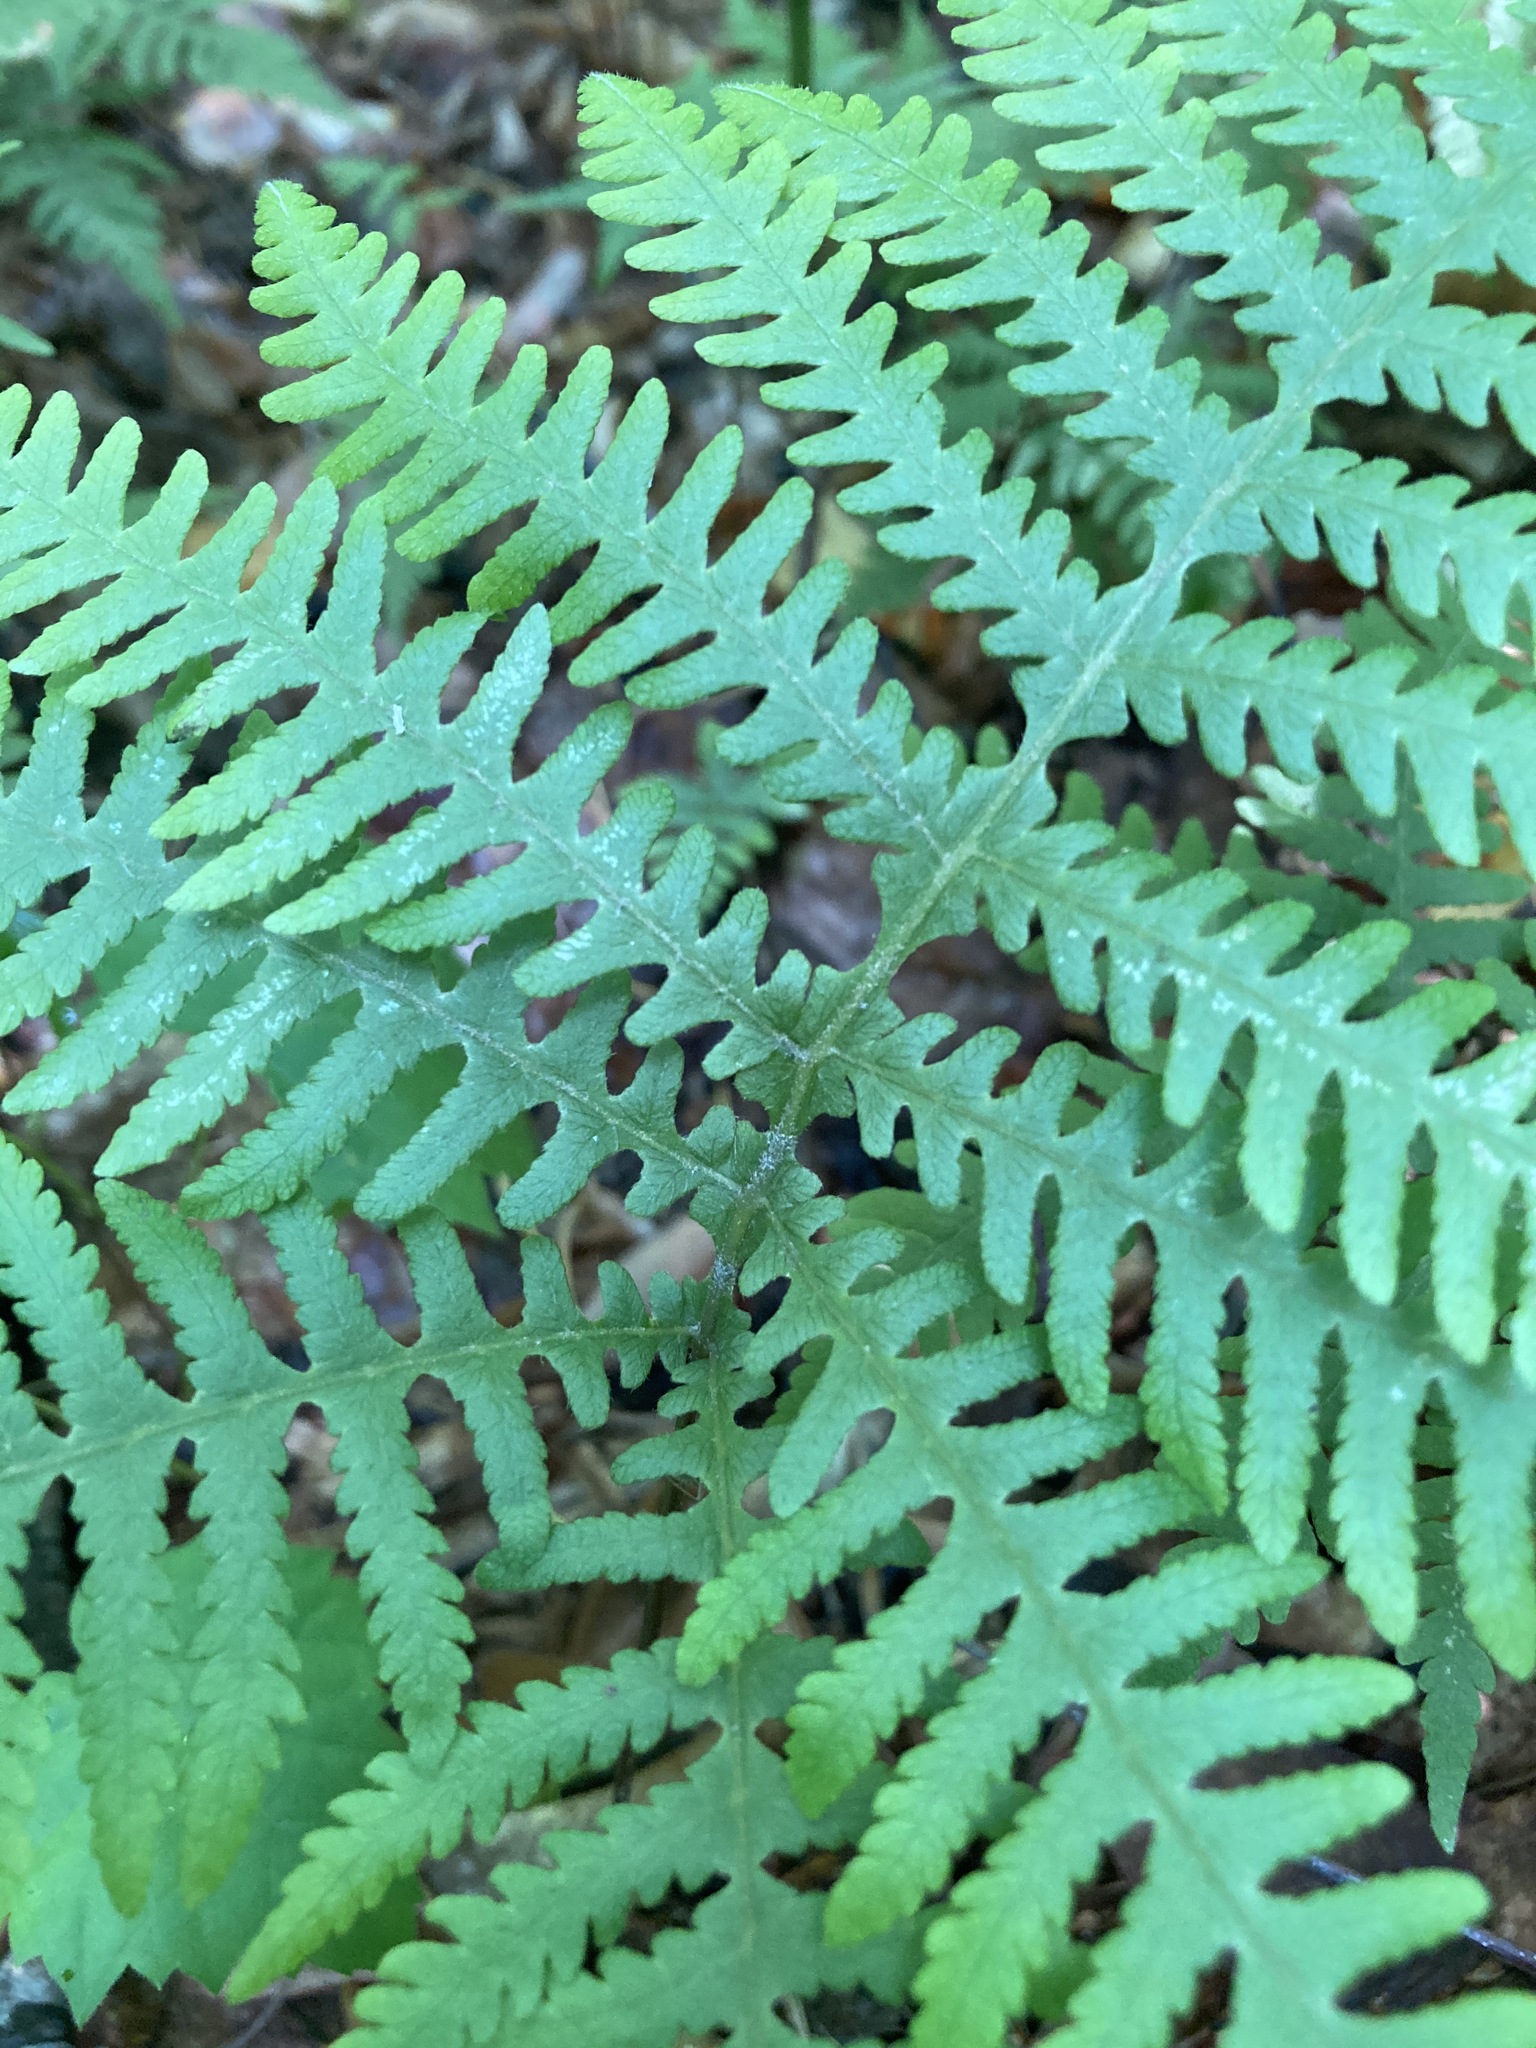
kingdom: Plantae
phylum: Tracheophyta
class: Polypodiopsida
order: Polypodiales
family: Thelypteridaceae
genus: Phegopteris
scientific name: Phegopteris hexagonoptera
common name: Broad beech fern
